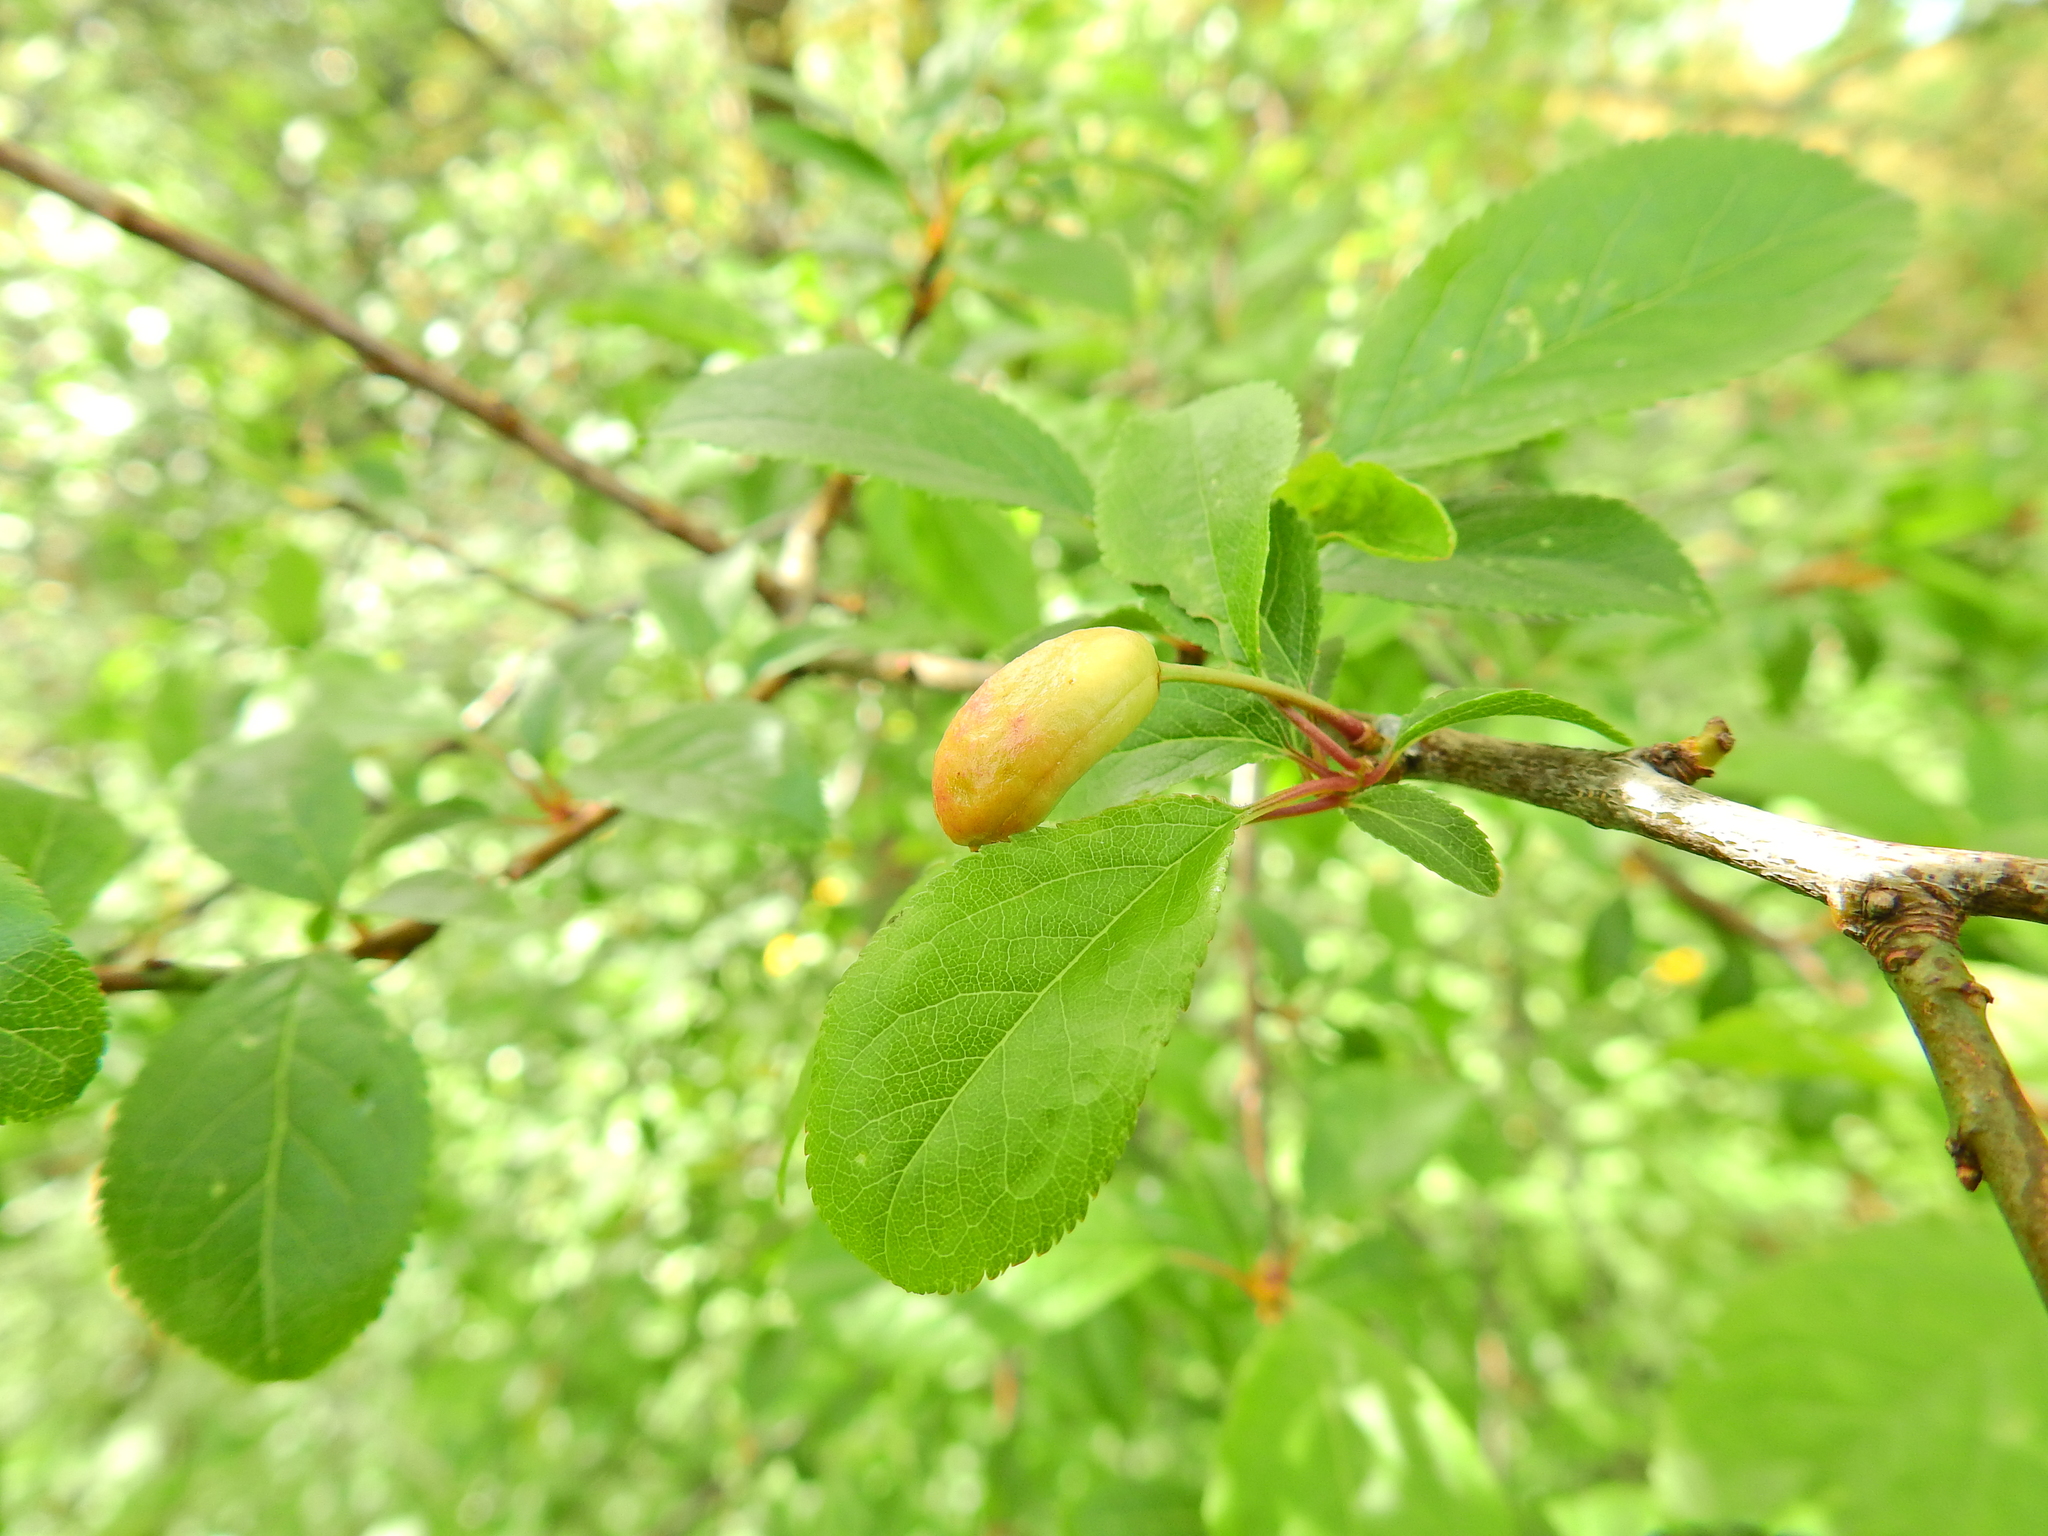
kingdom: Fungi
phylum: Ascomycota
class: Taphrinomycetes
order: Taphrinales
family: Taphrinaceae
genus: Taphrina
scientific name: Taphrina pruni
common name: Pocket plum
